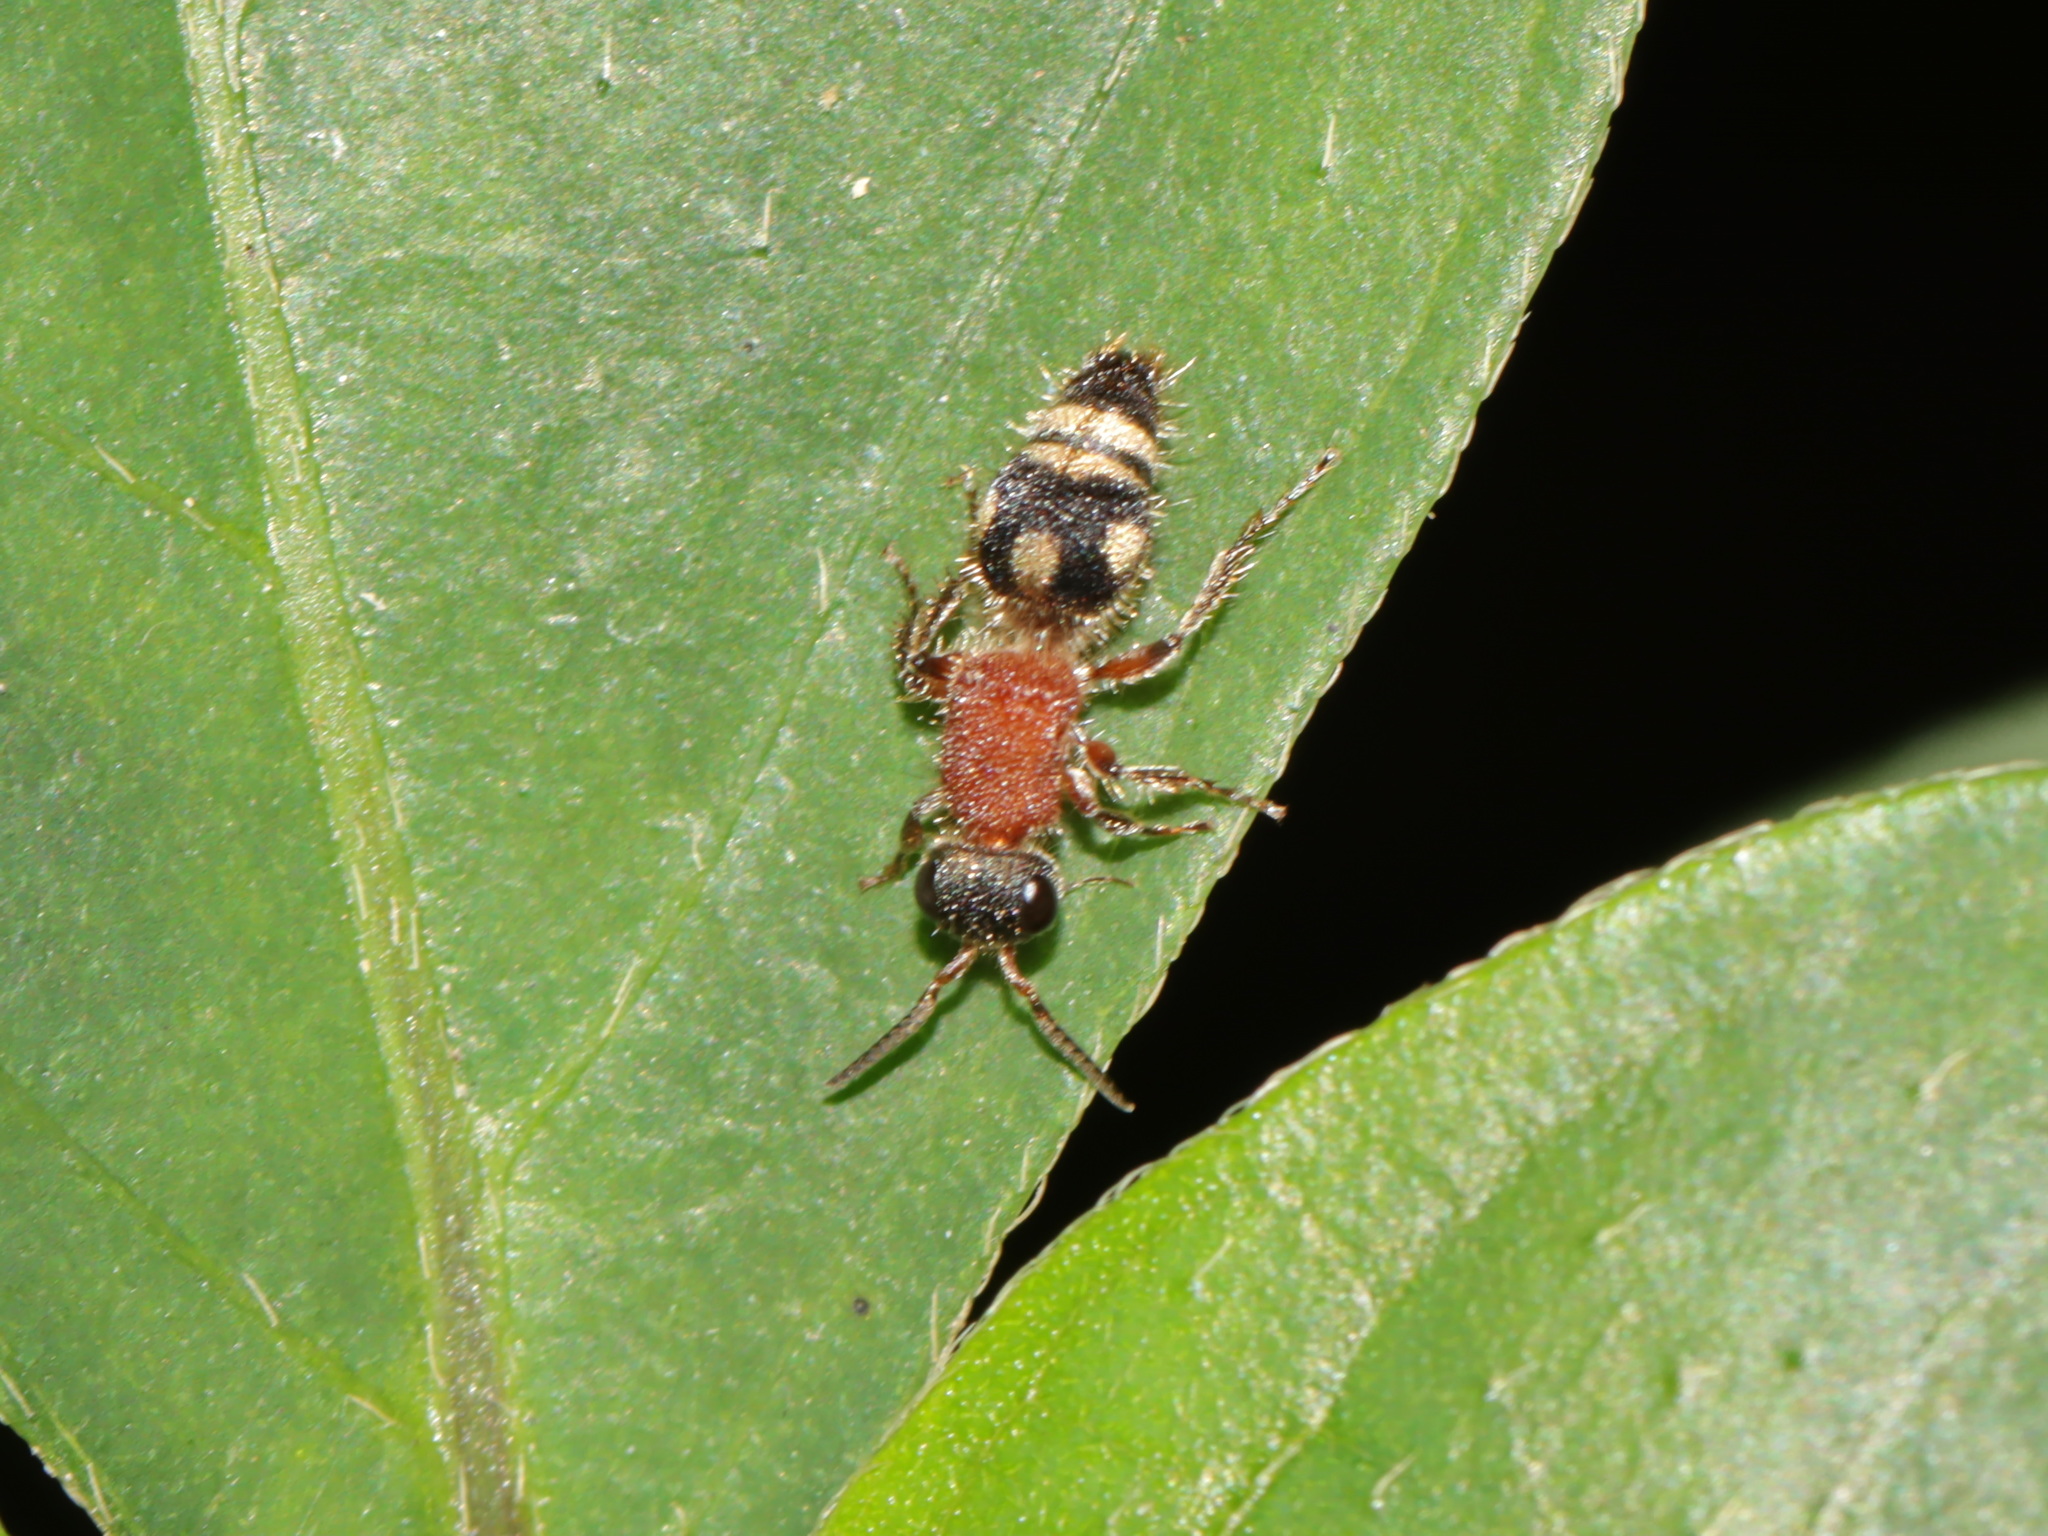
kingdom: Animalia
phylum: Arthropoda
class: Insecta
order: Hymenoptera
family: Mutillidae
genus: Smicromyrme
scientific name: Smicromyrme thaochani
